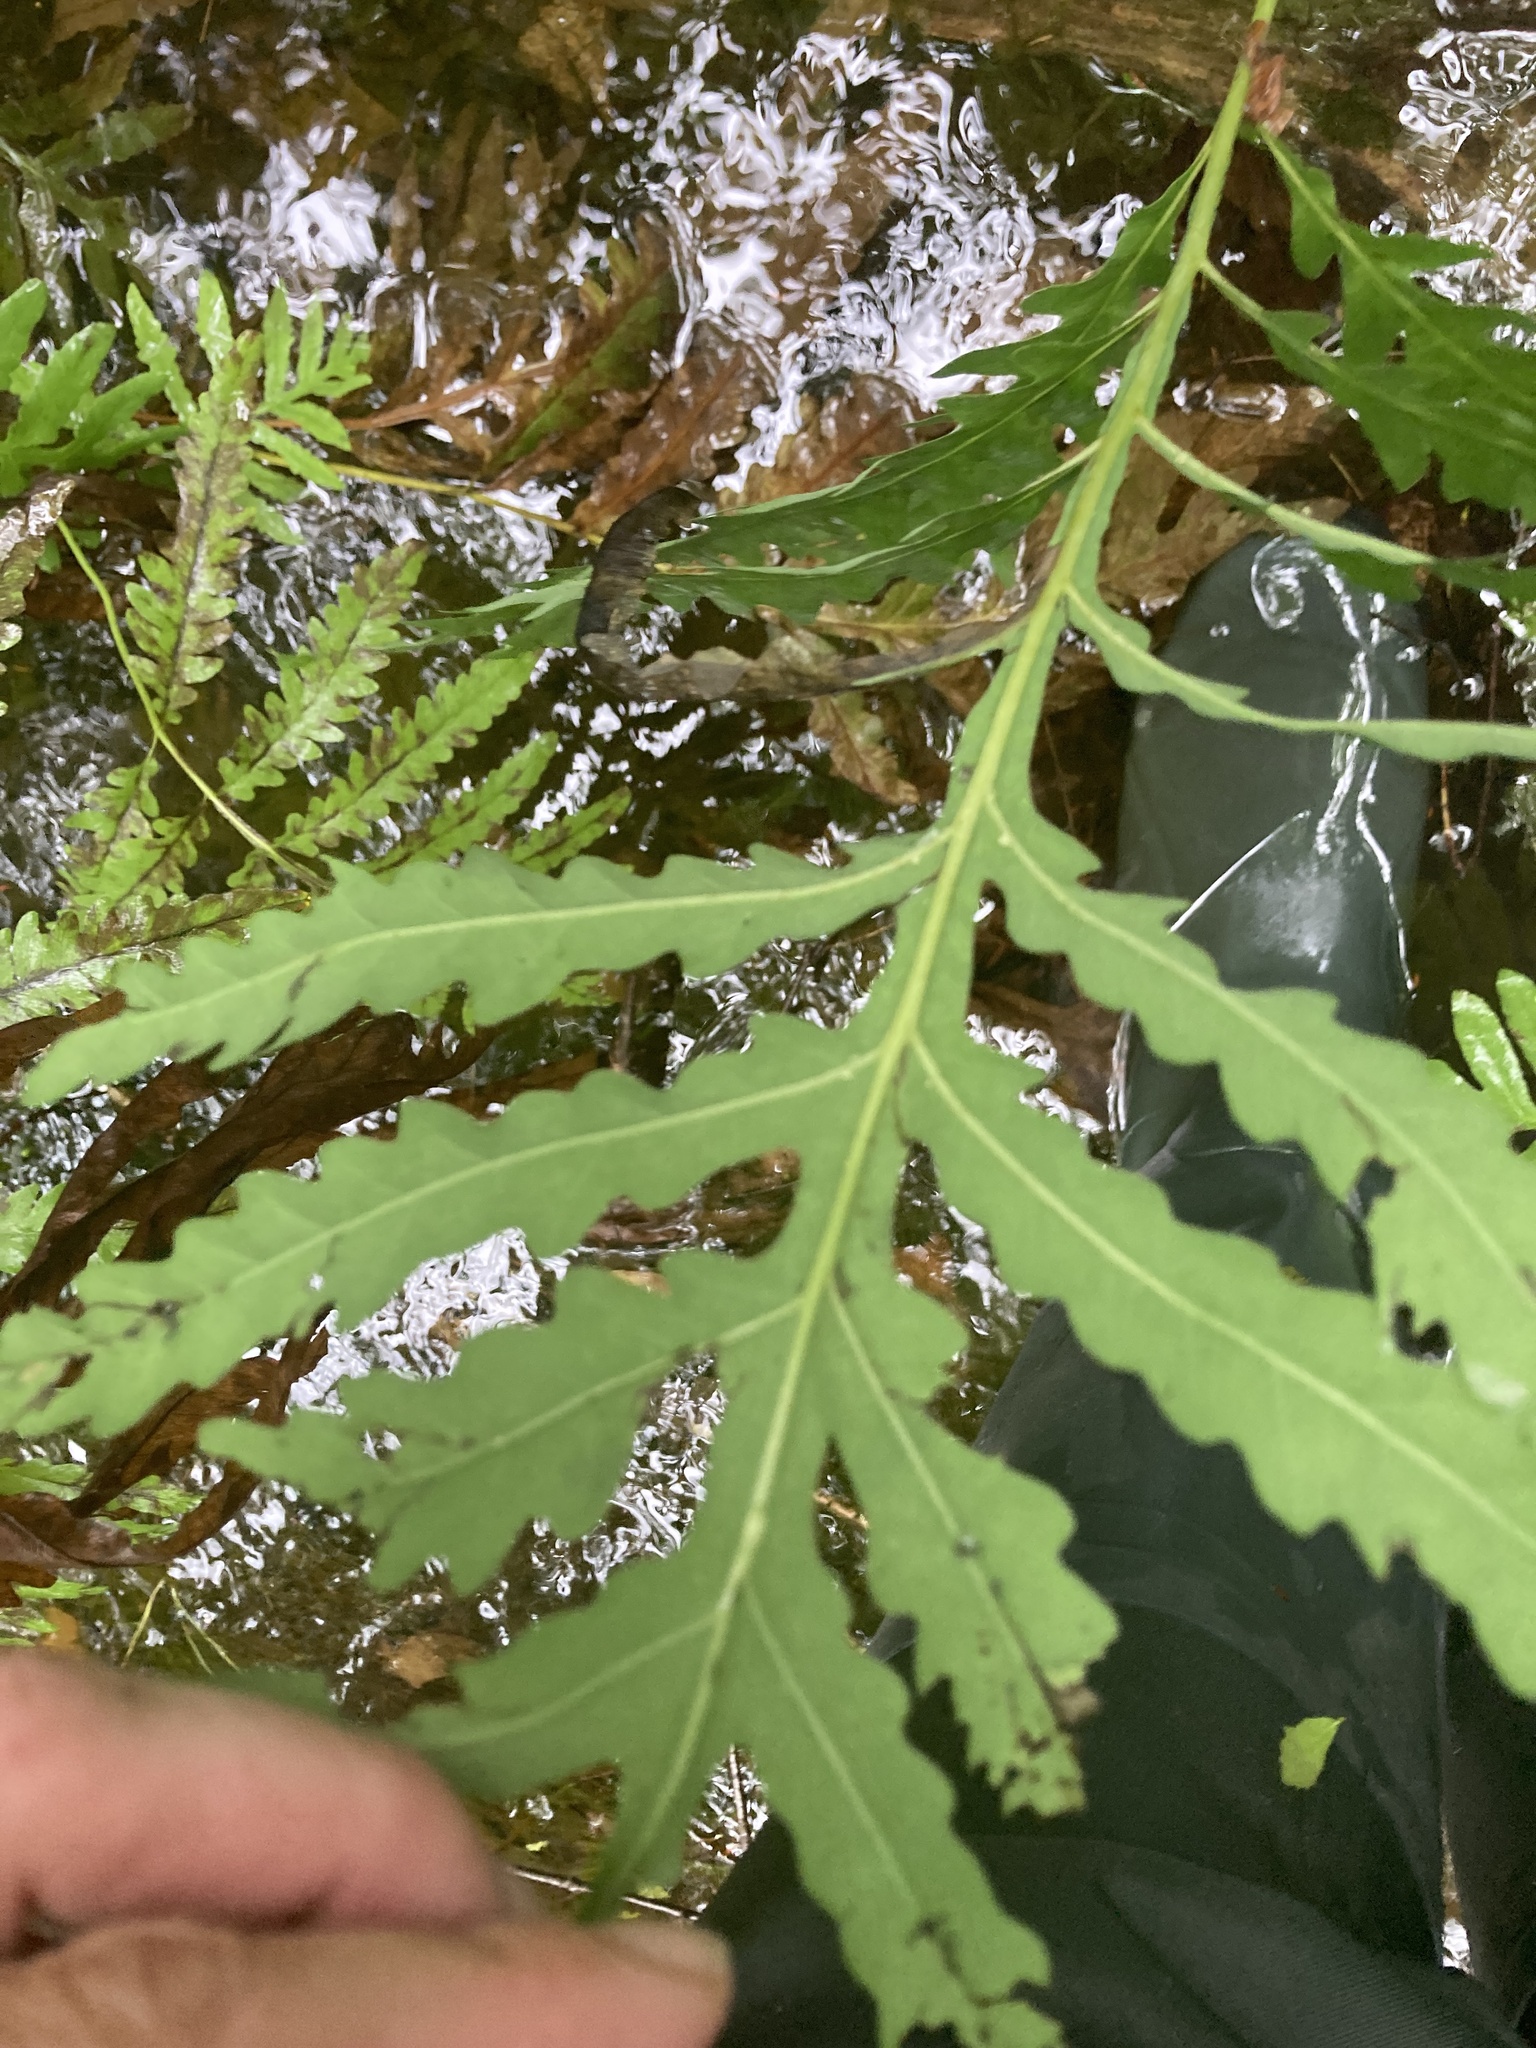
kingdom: Plantae
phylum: Tracheophyta
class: Polypodiopsida
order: Polypodiales
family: Onocleaceae
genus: Onoclea
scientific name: Onoclea sensibilis
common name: Sensitive fern
